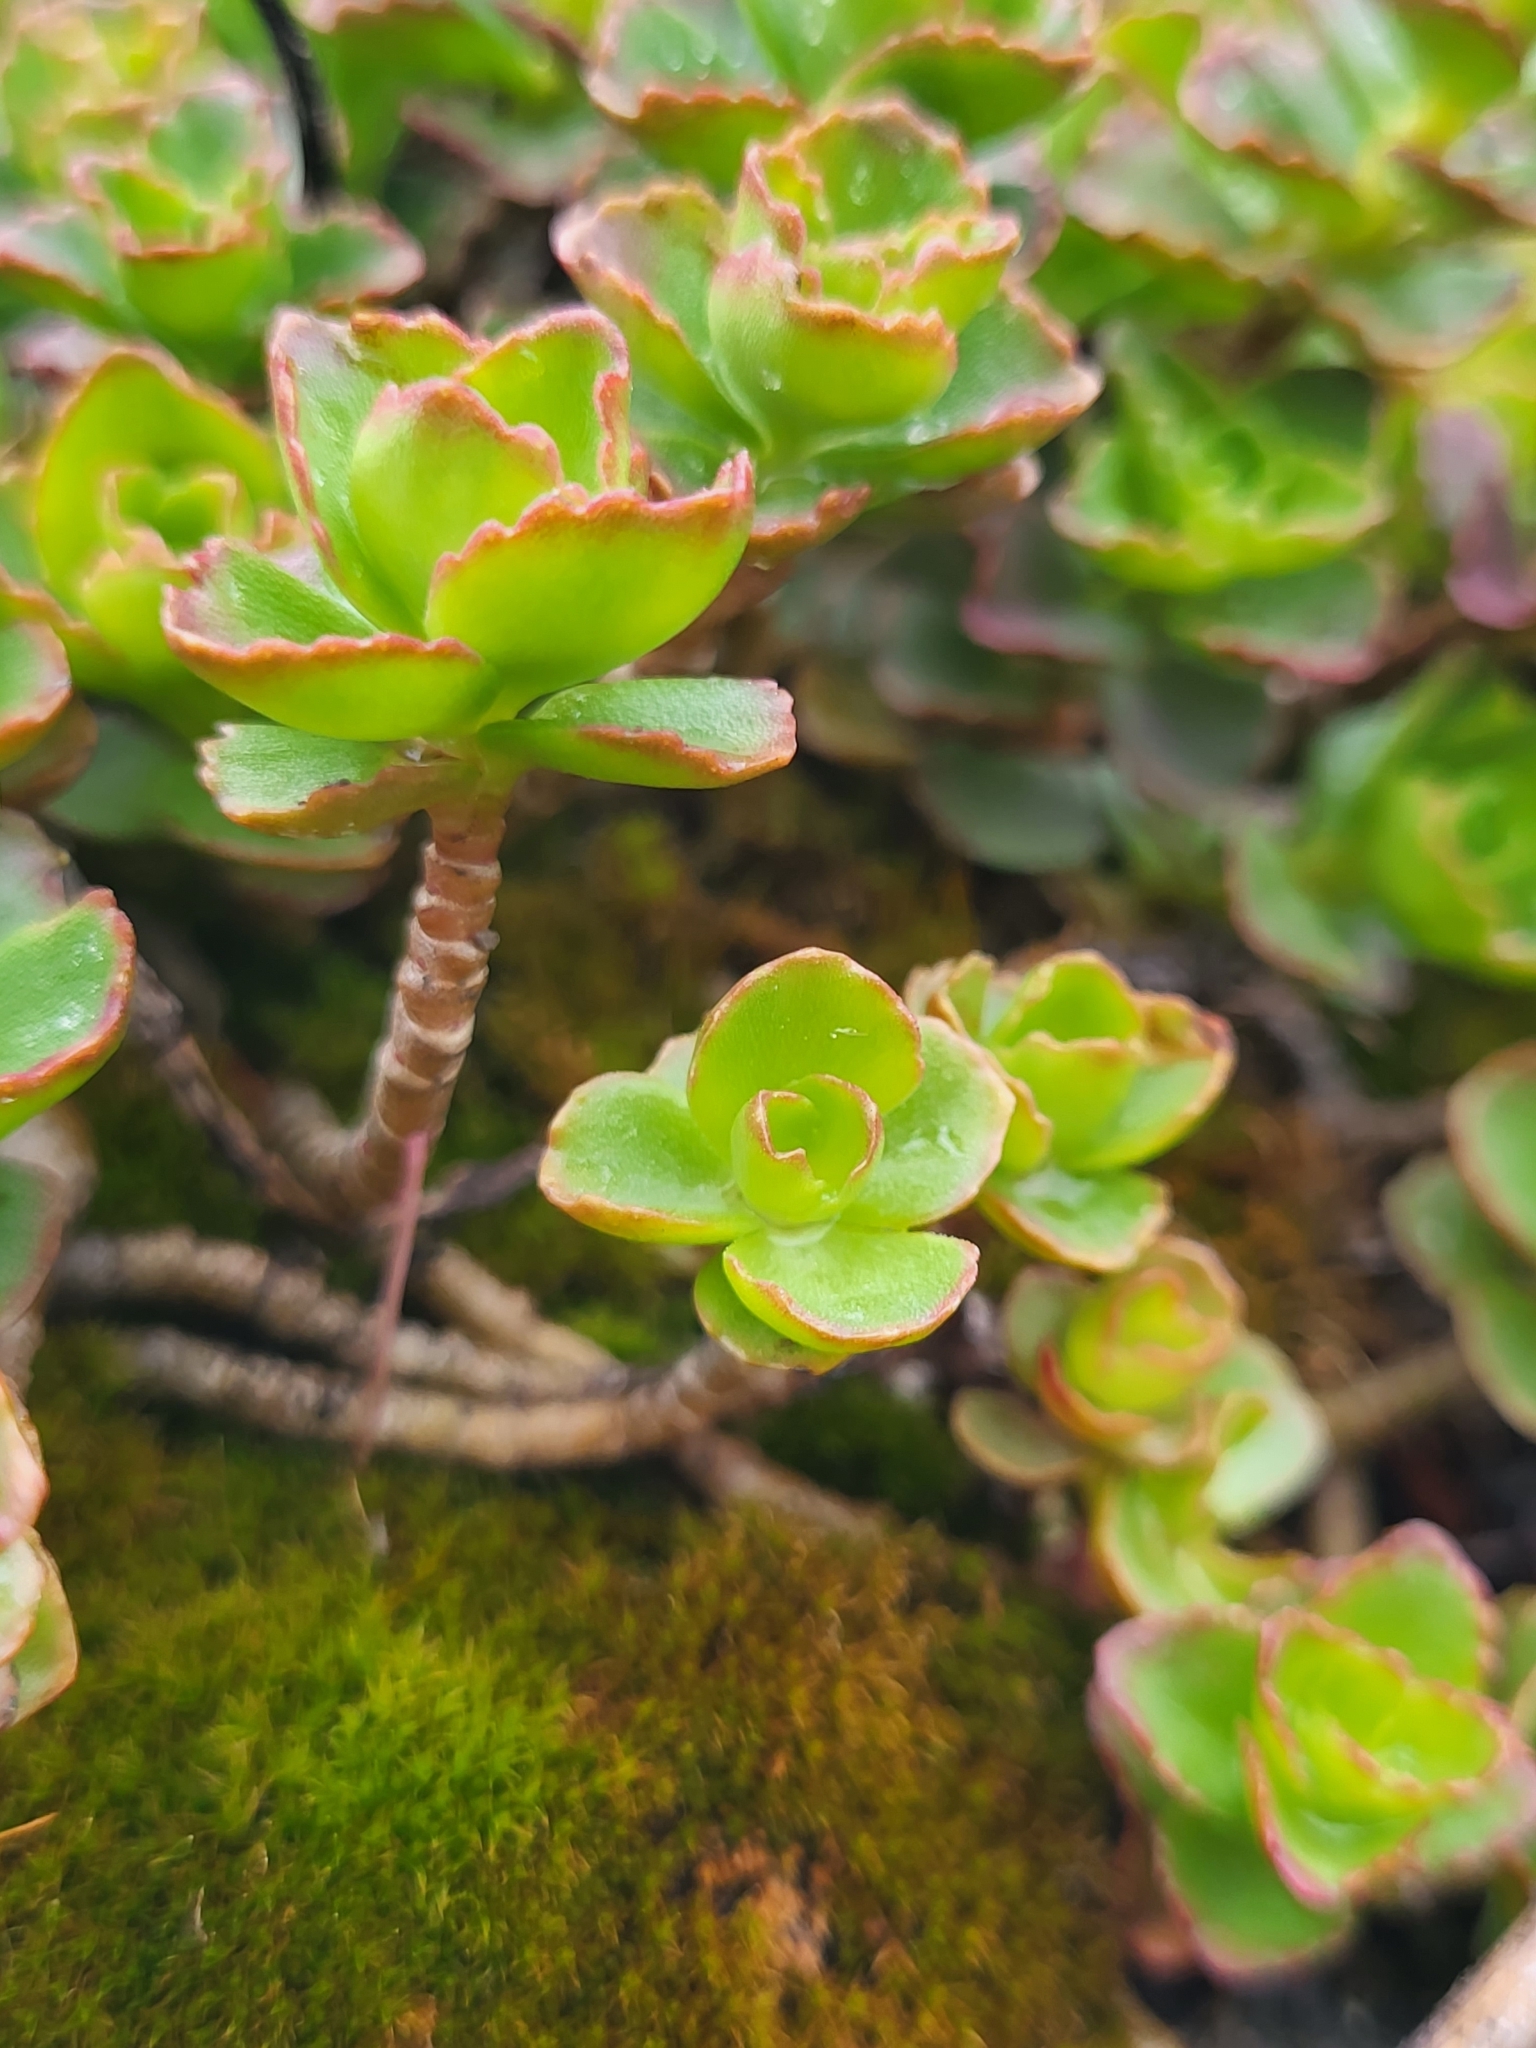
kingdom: Plantae
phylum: Tracheophyta
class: Magnoliopsida
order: Saxifragales
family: Crassulaceae
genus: Phedimus
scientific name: Phedimus spurius
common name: Caucasian stonecrop
